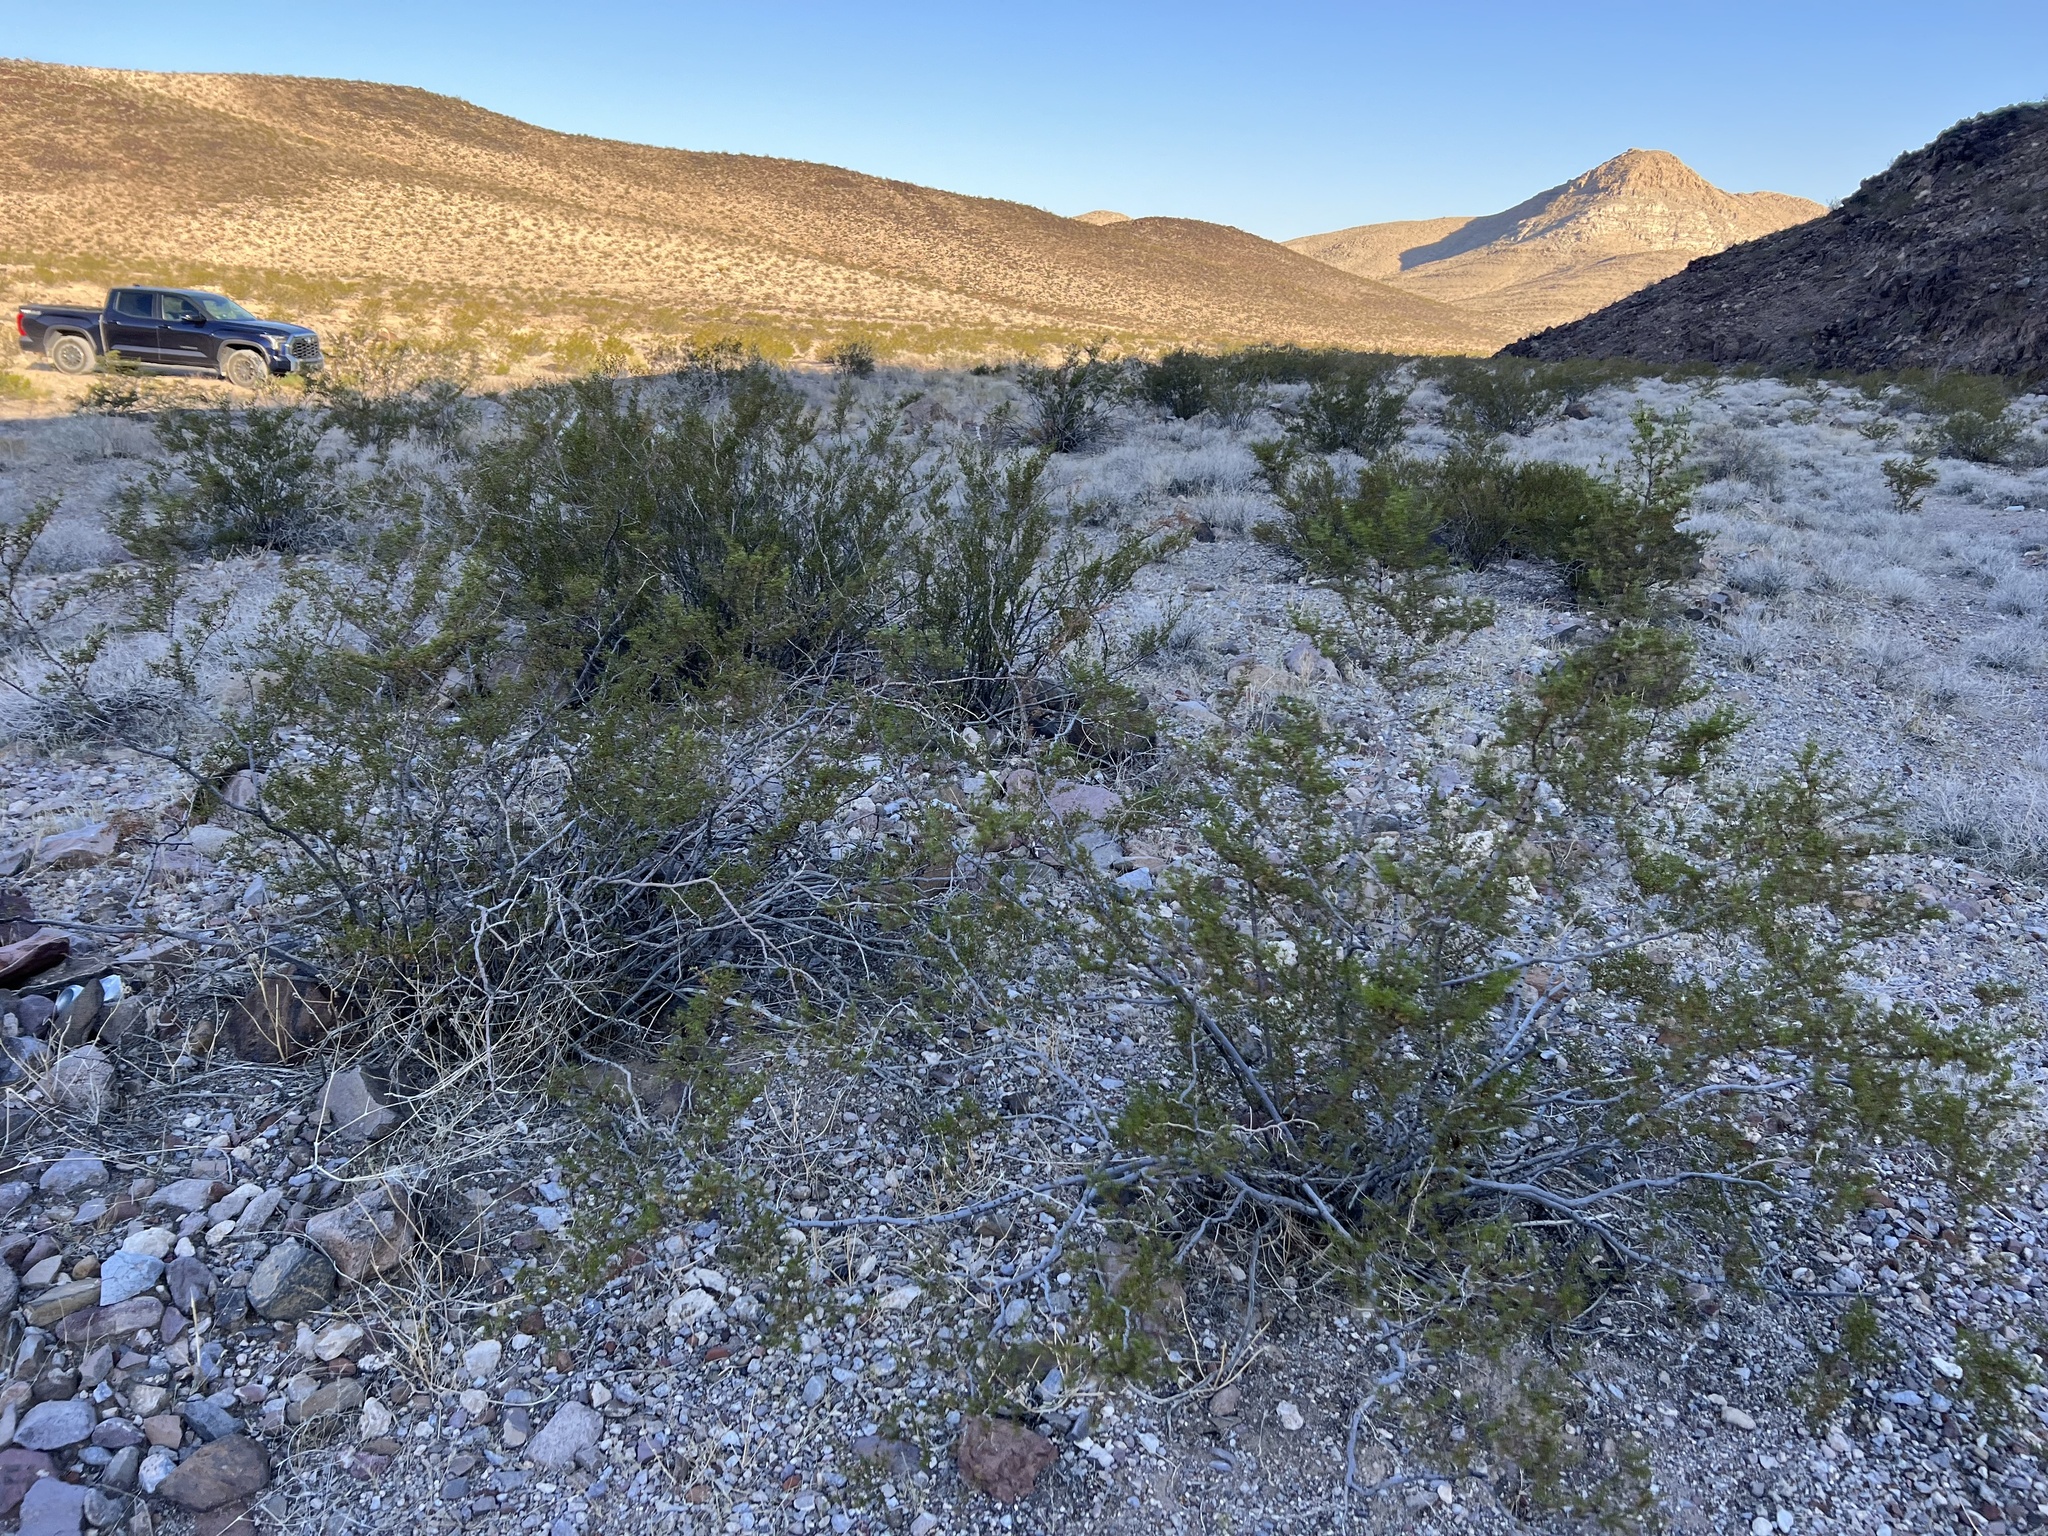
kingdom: Plantae
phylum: Tracheophyta
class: Magnoliopsida
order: Zygophyllales
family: Zygophyllaceae
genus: Larrea
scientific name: Larrea tridentata
